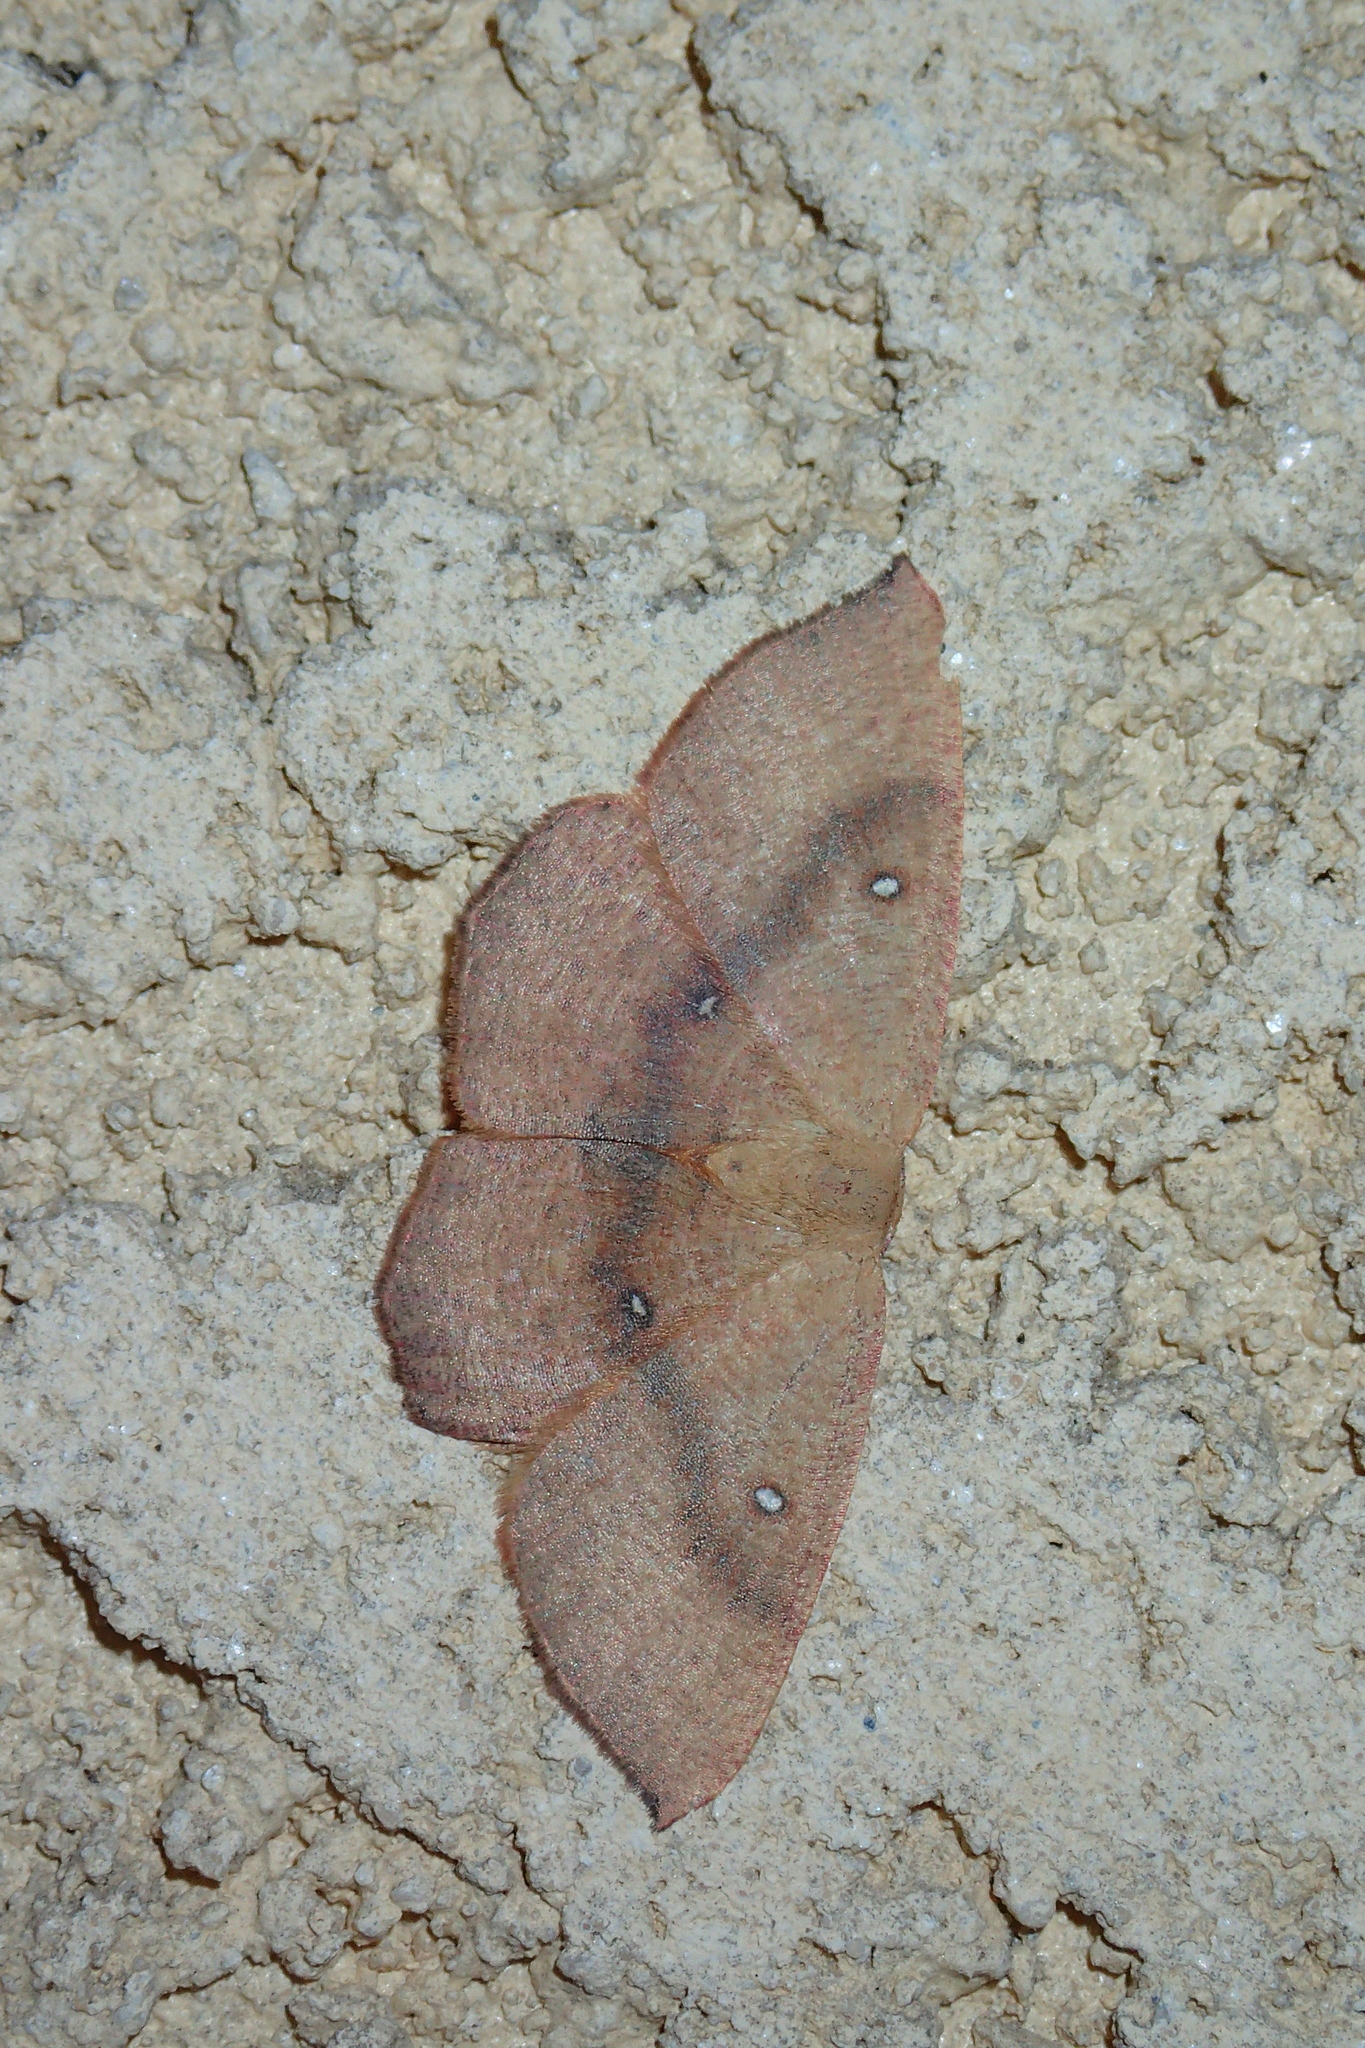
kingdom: Animalia
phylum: Arthropoda
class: Insecta
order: Lepidoptera
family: Geometridae
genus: Cyclophora
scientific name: Cyclophora puppillaria
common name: Blair's mocha
